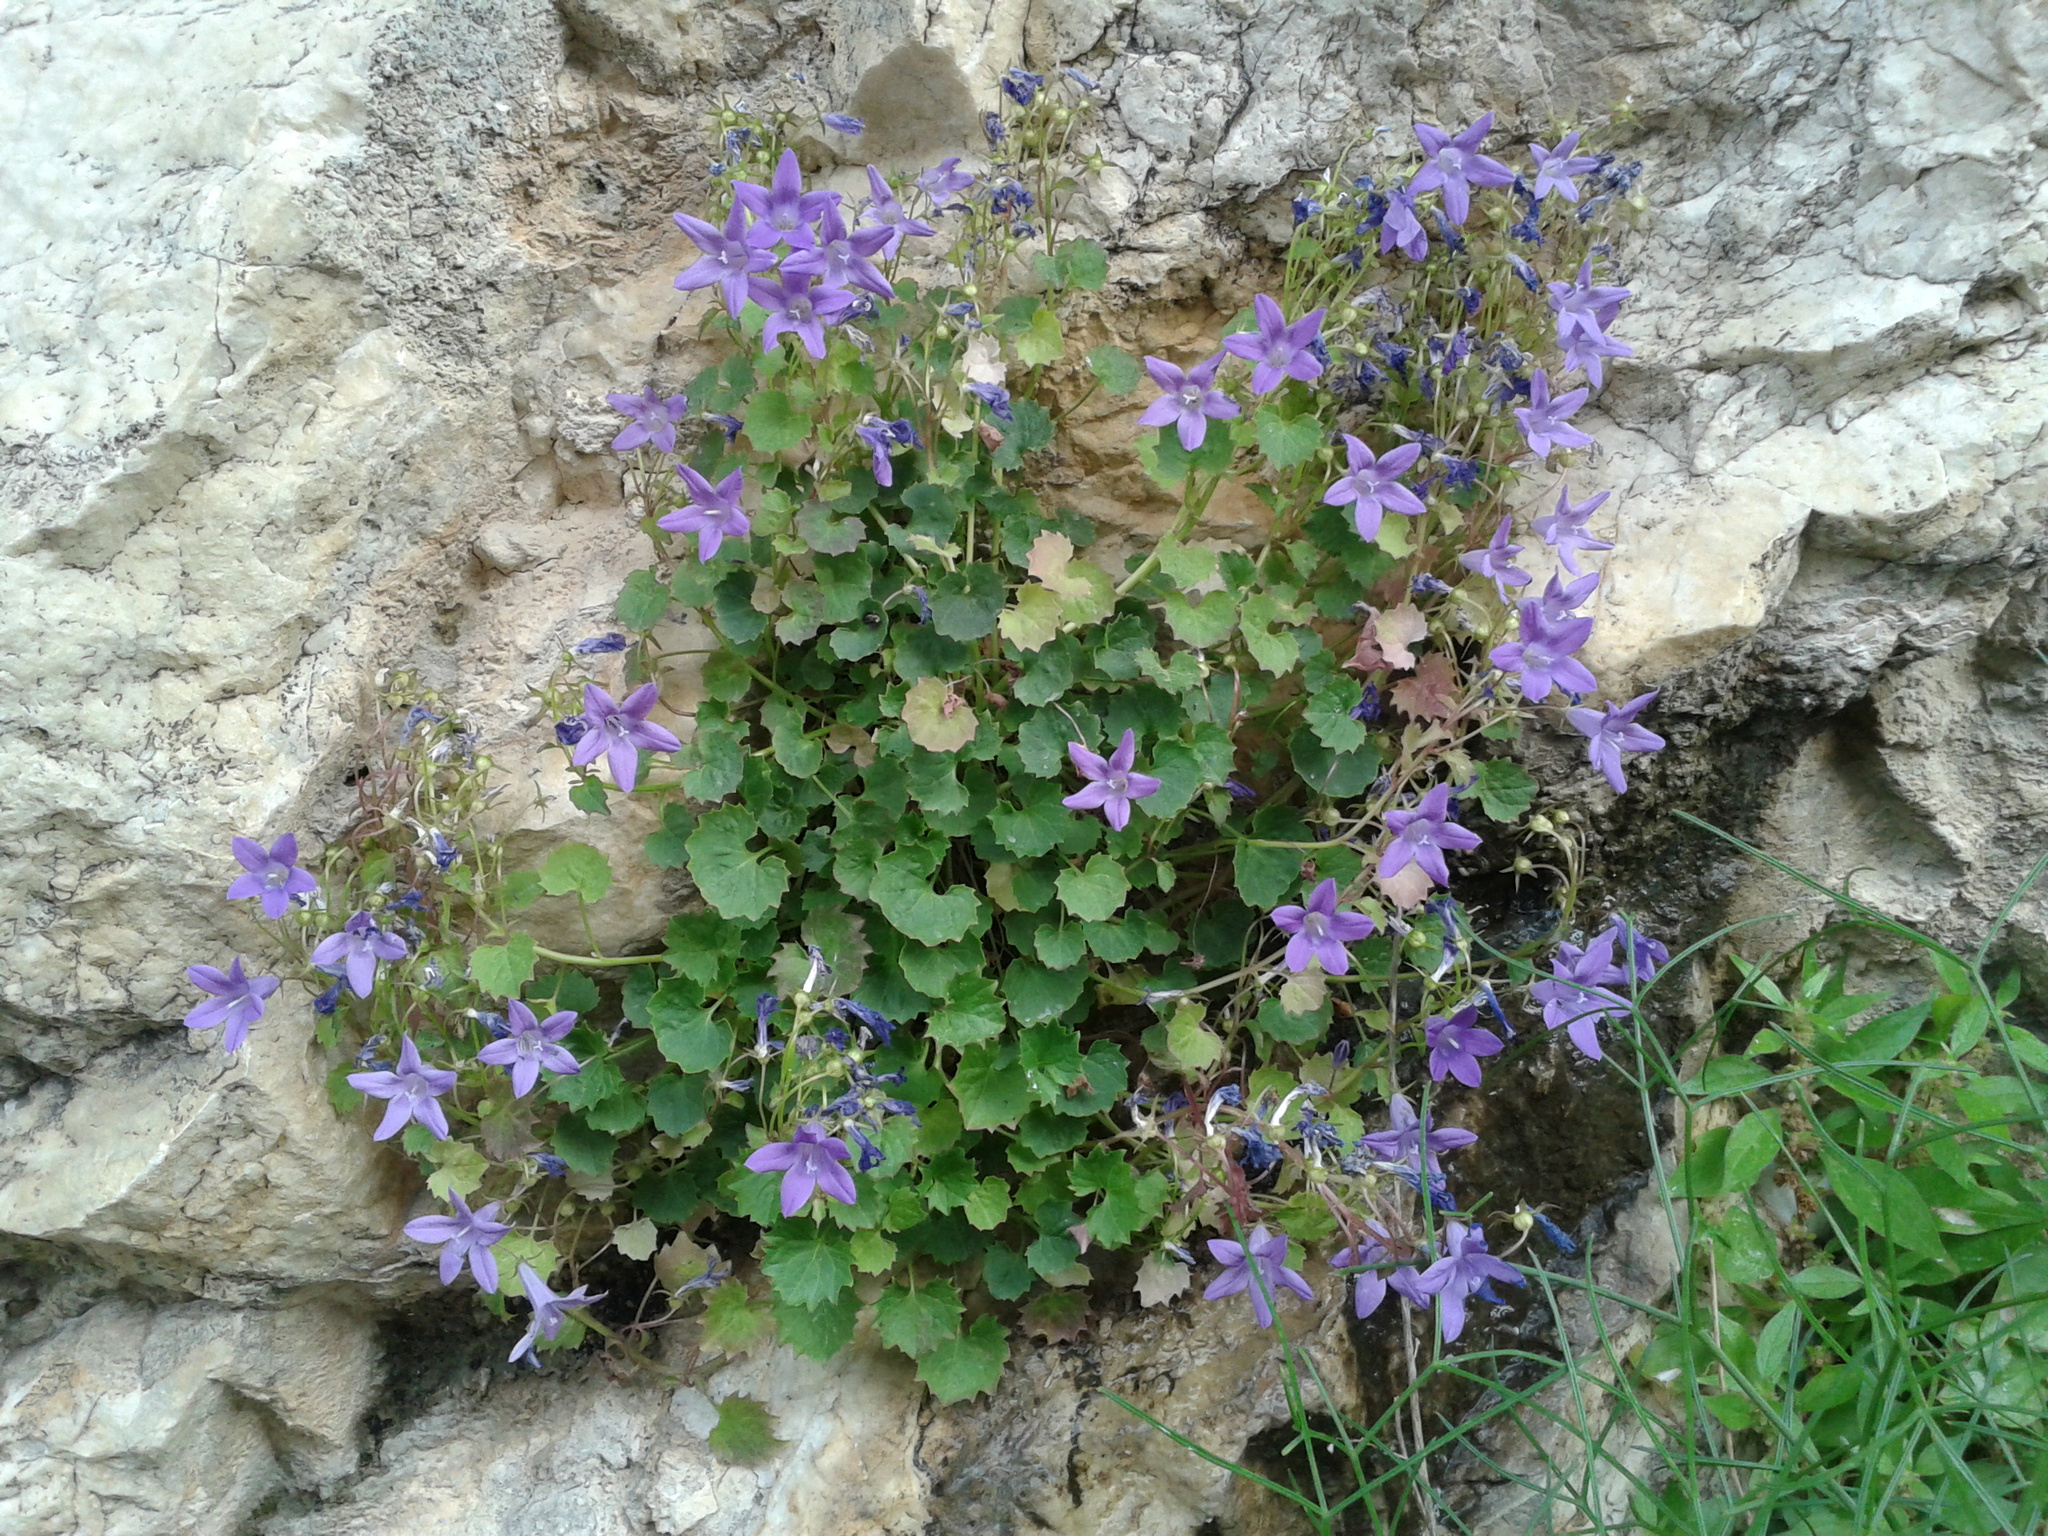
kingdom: Plantae
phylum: Tracheophyta
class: Magnoliopsida
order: Asterales
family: Campanulaceae
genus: Campanula
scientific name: Campanula portenschlagiana
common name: Adria bellflower
